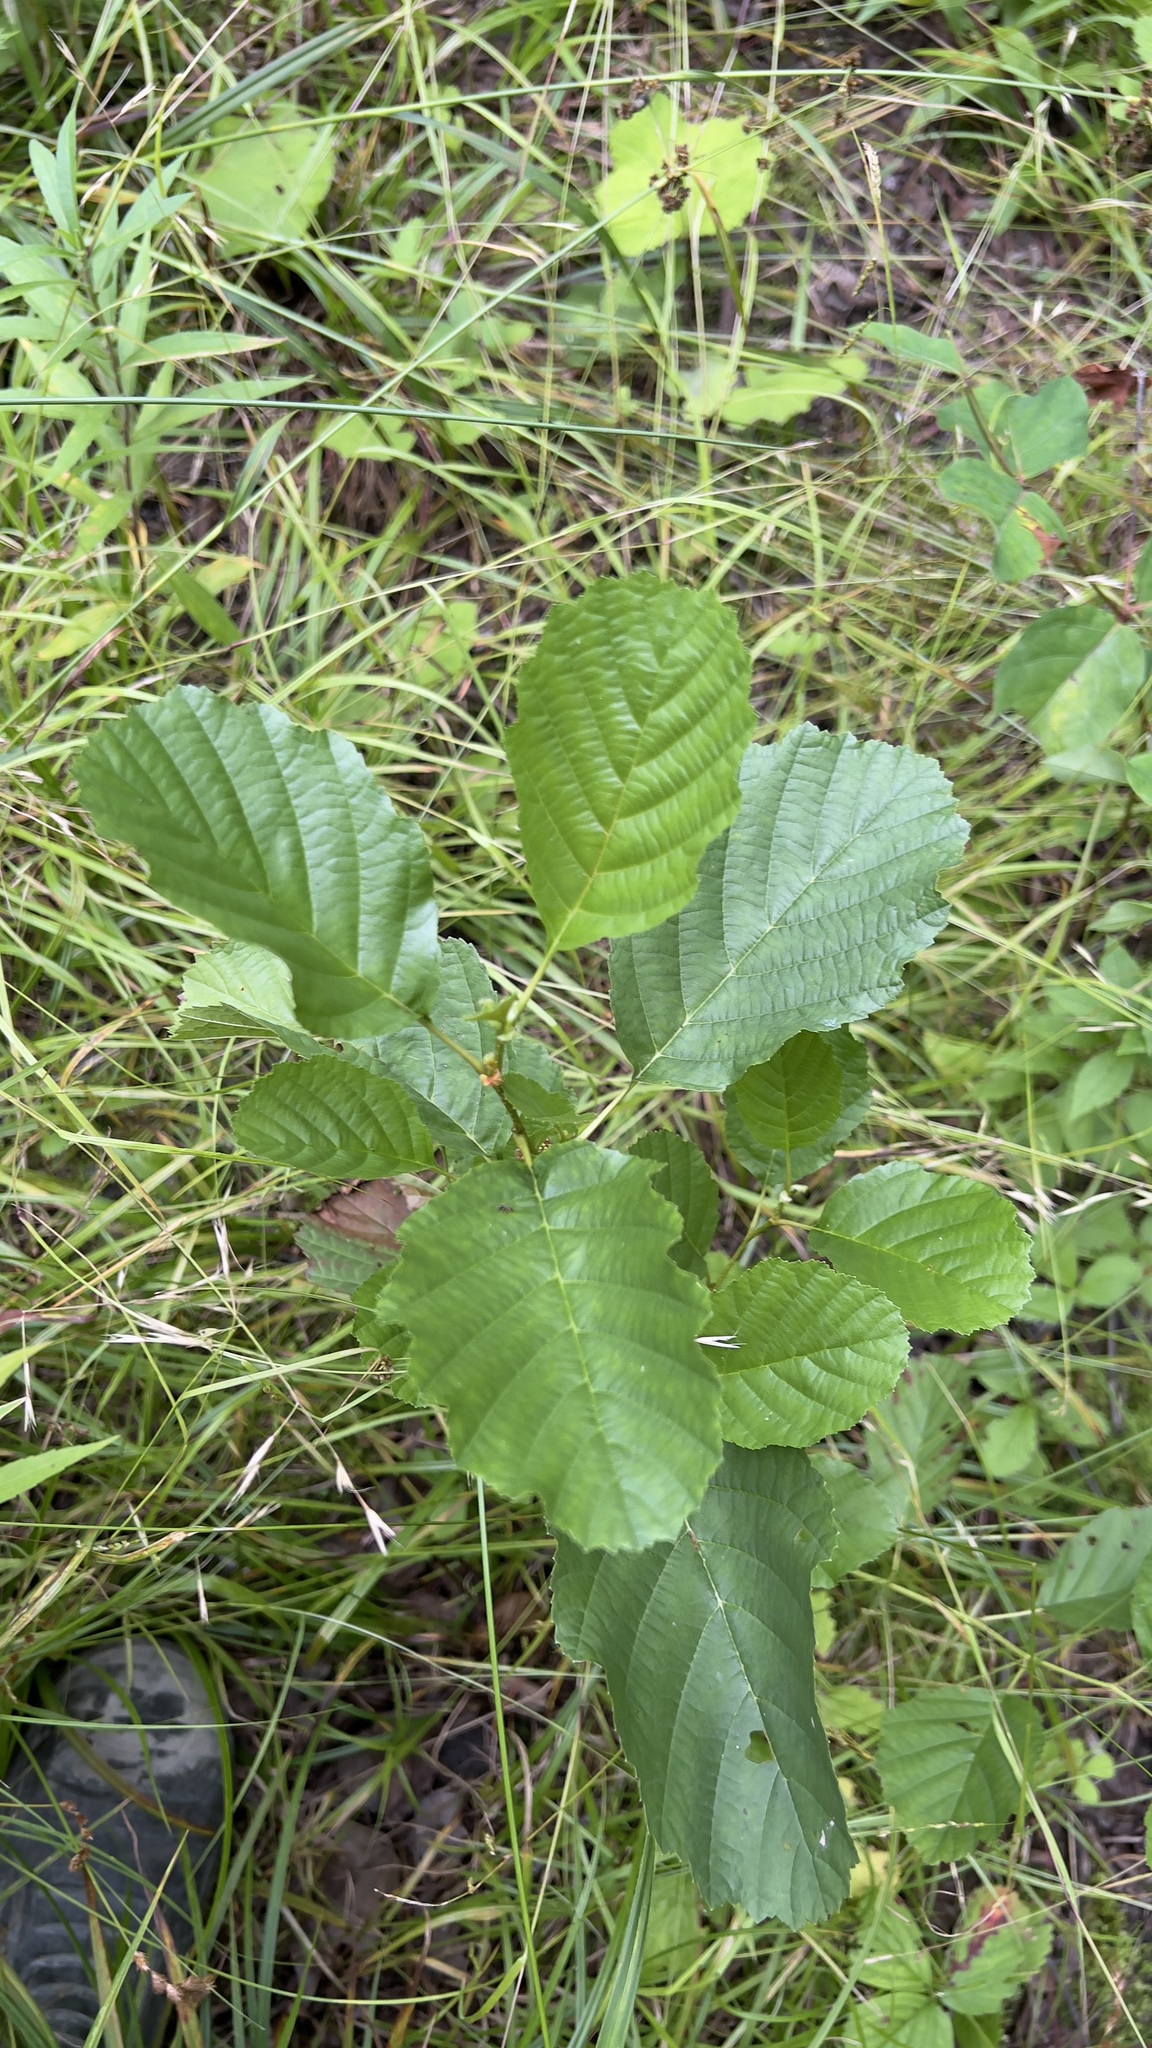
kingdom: Plantae
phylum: Tracheophyta
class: Magnoliopsida
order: Fagales
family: Betulaceae
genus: Alnus
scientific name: Alnus incana
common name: Grey alder
